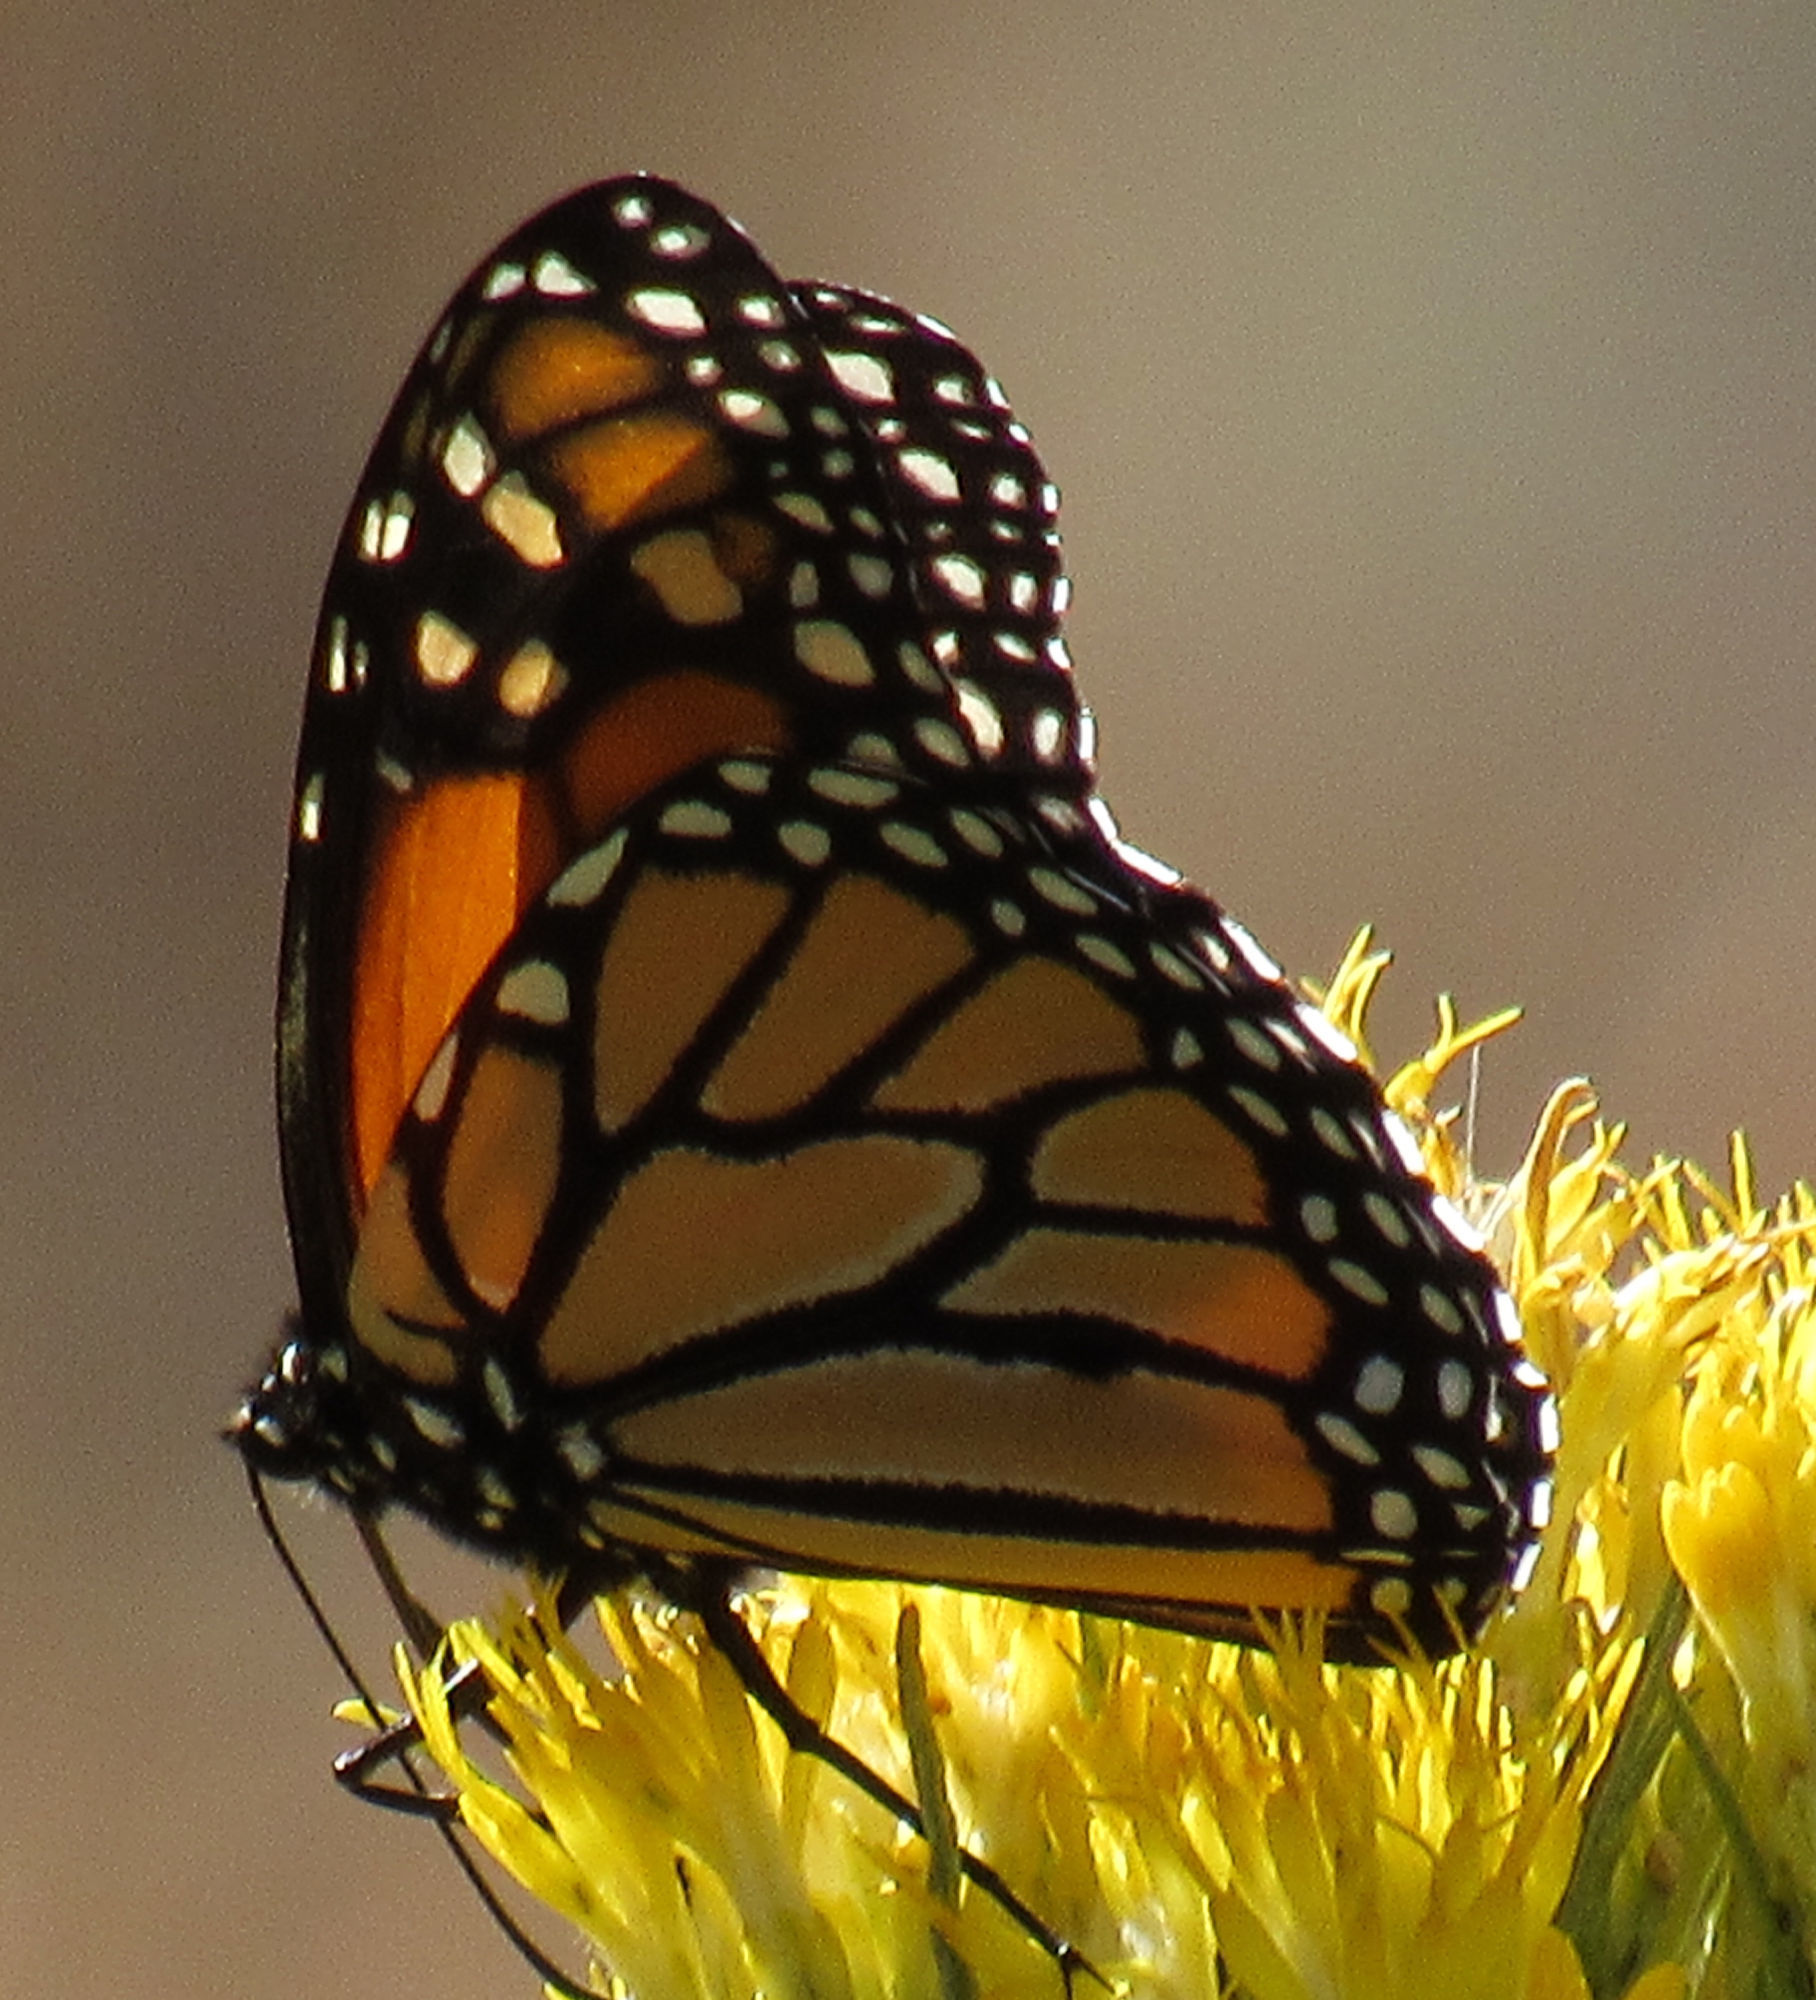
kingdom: Animalia
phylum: Arthropoda
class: Insecta
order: Lepidoptera
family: Nymphalidae
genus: Danaus
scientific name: Danaus plexippus
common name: Monarch
